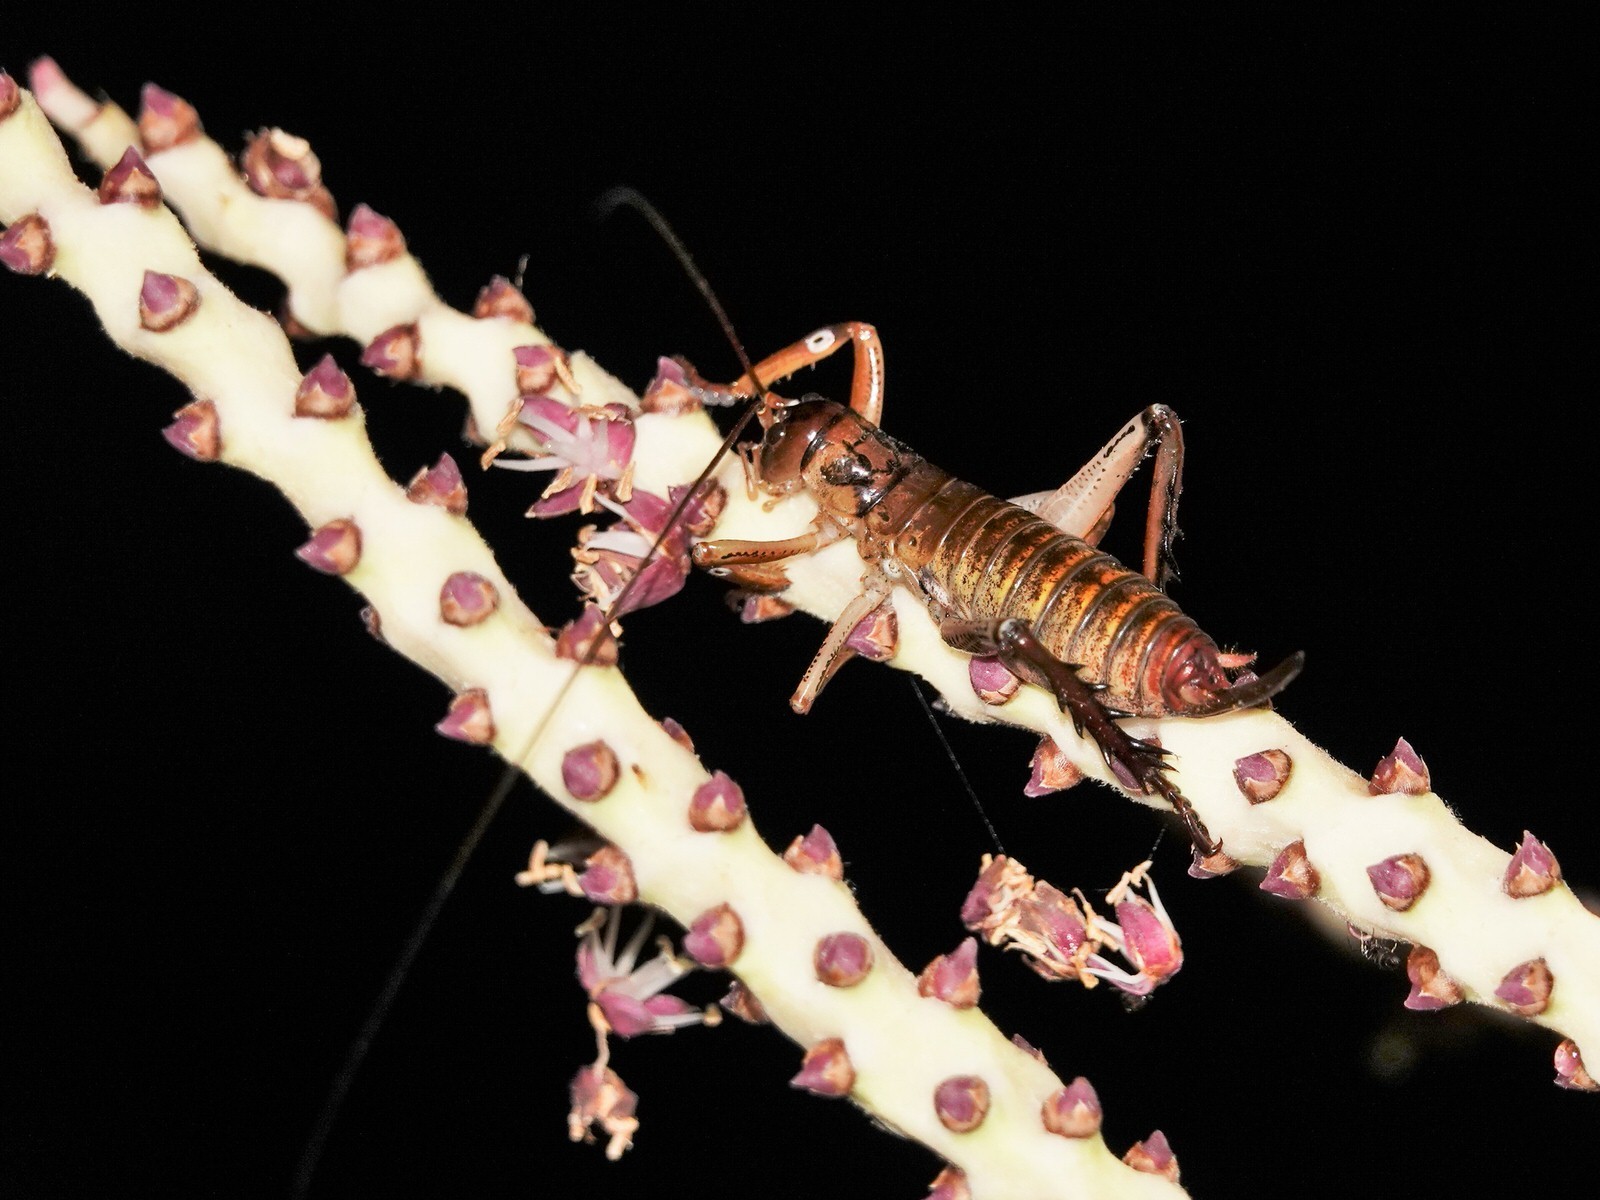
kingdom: Animalia
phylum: Arthropoda
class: Insecta
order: Orthoptera
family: Anostostomatidae
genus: Hemideina
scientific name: Hemideina thoracica
